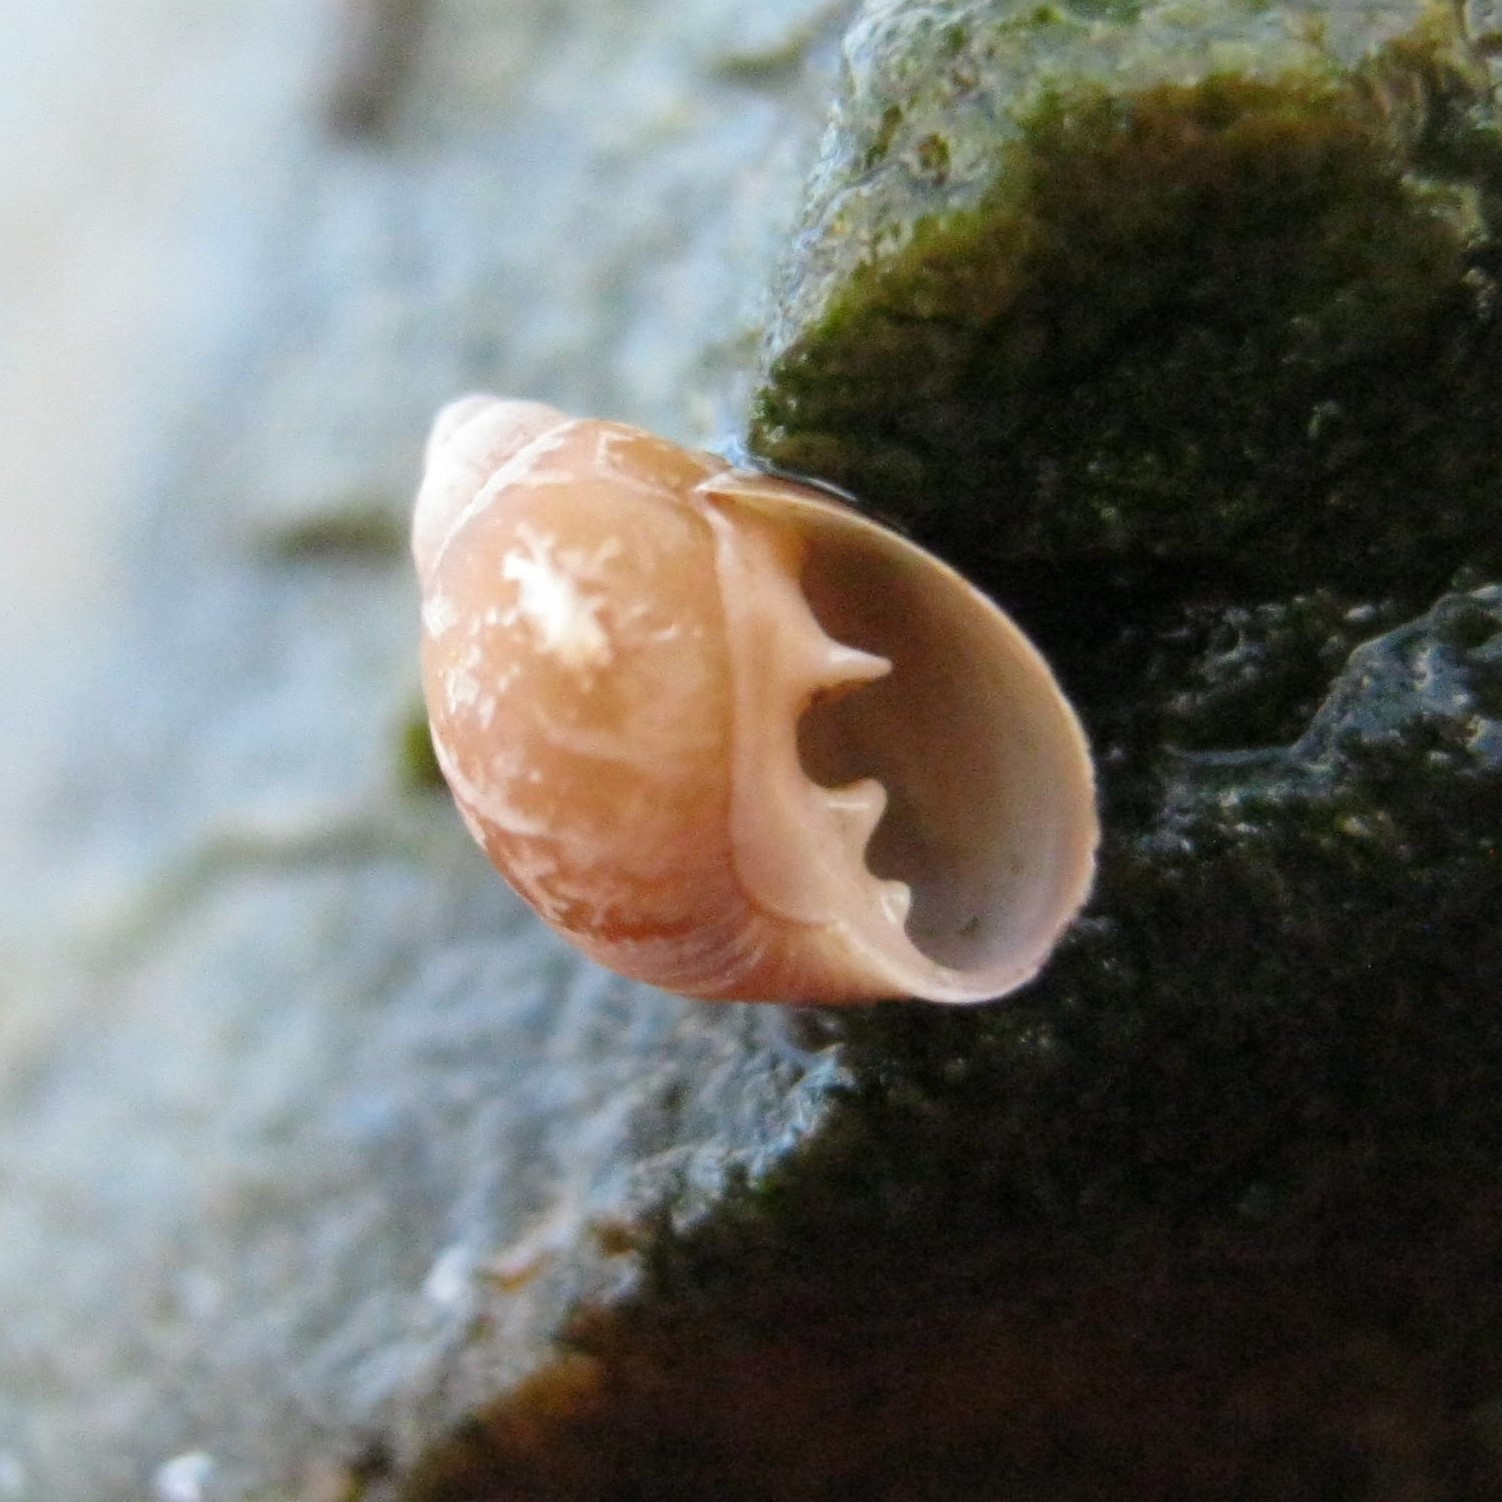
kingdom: Animalia
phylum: Mollusca
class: Gastropoda
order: Ellobiida
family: Ellobiidae
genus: Marinula
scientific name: Marinula filholi
